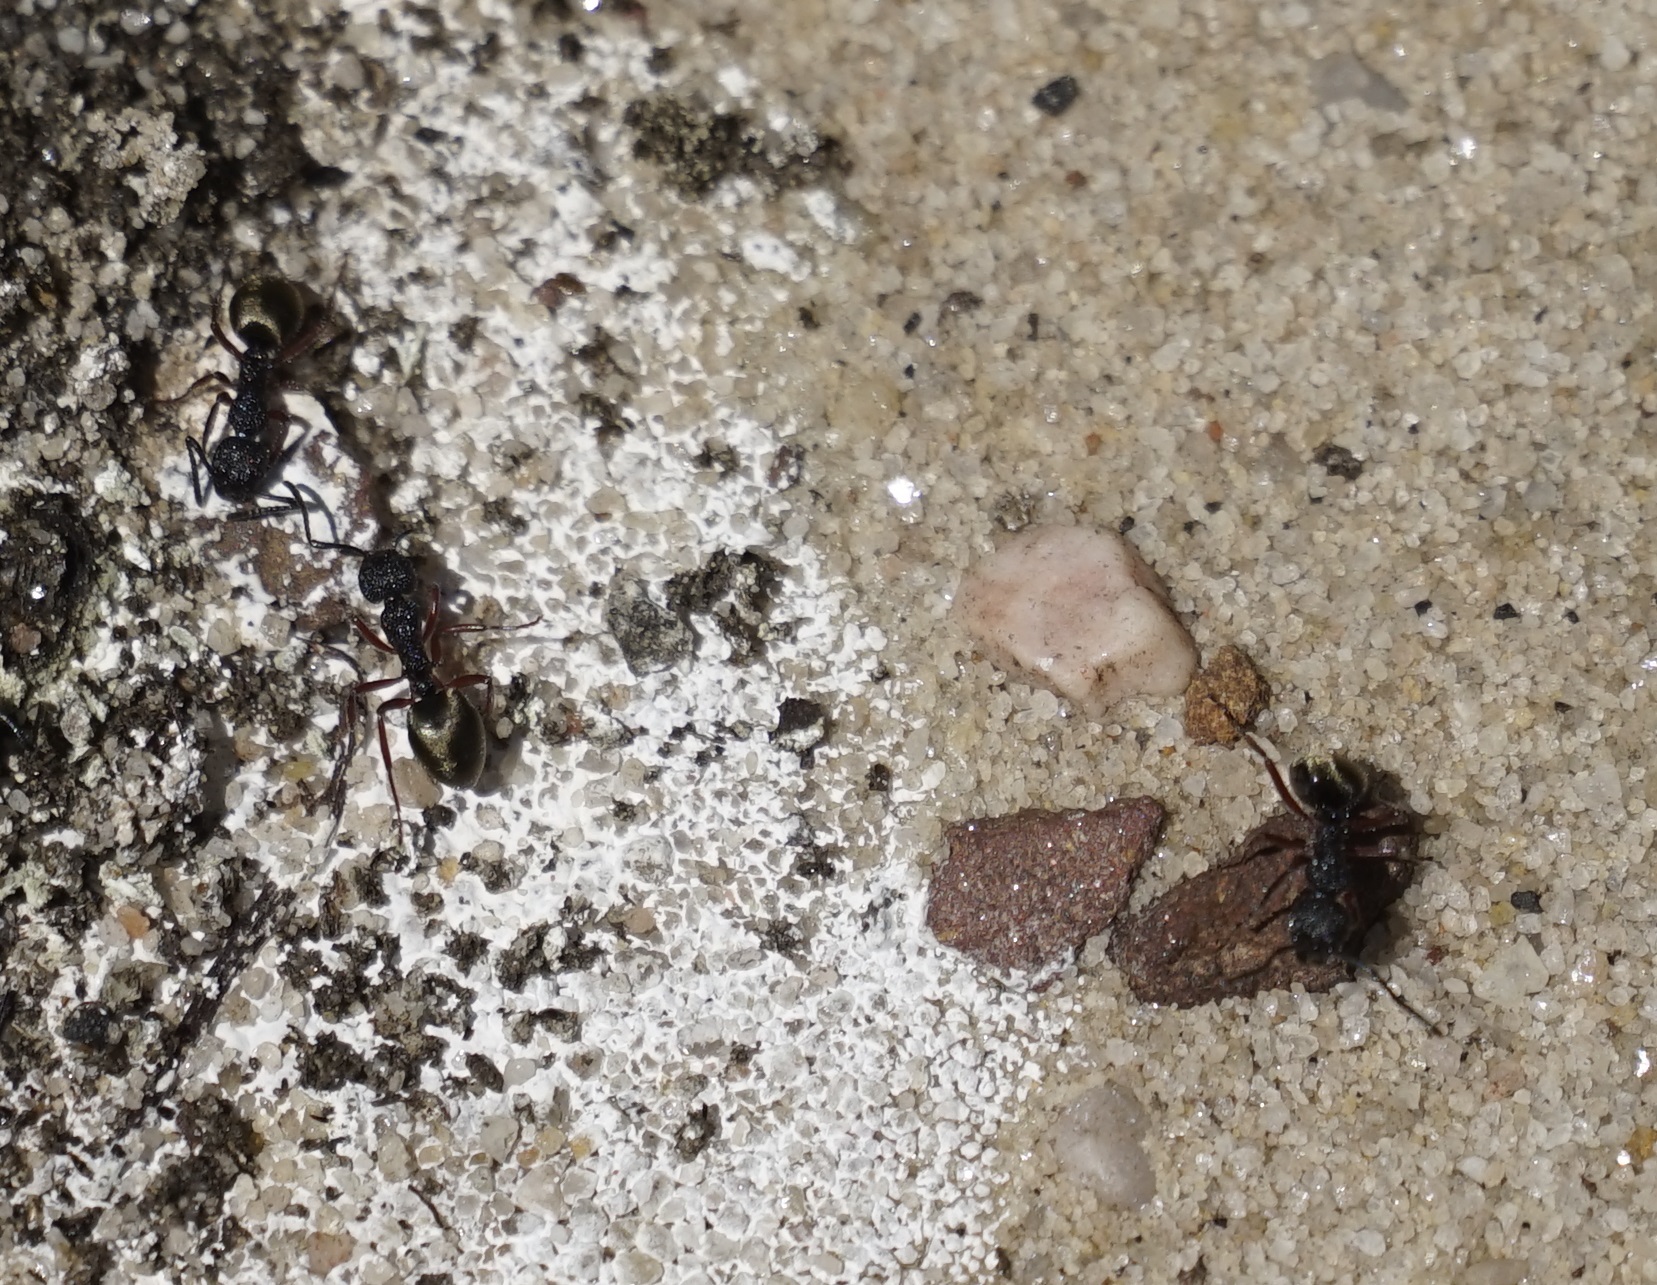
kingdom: Animalia
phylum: Arthropoda
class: Insecta
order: Hymenoptera
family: Formicidae
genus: Dolichoderus
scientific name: Dolichoderus scabridus
